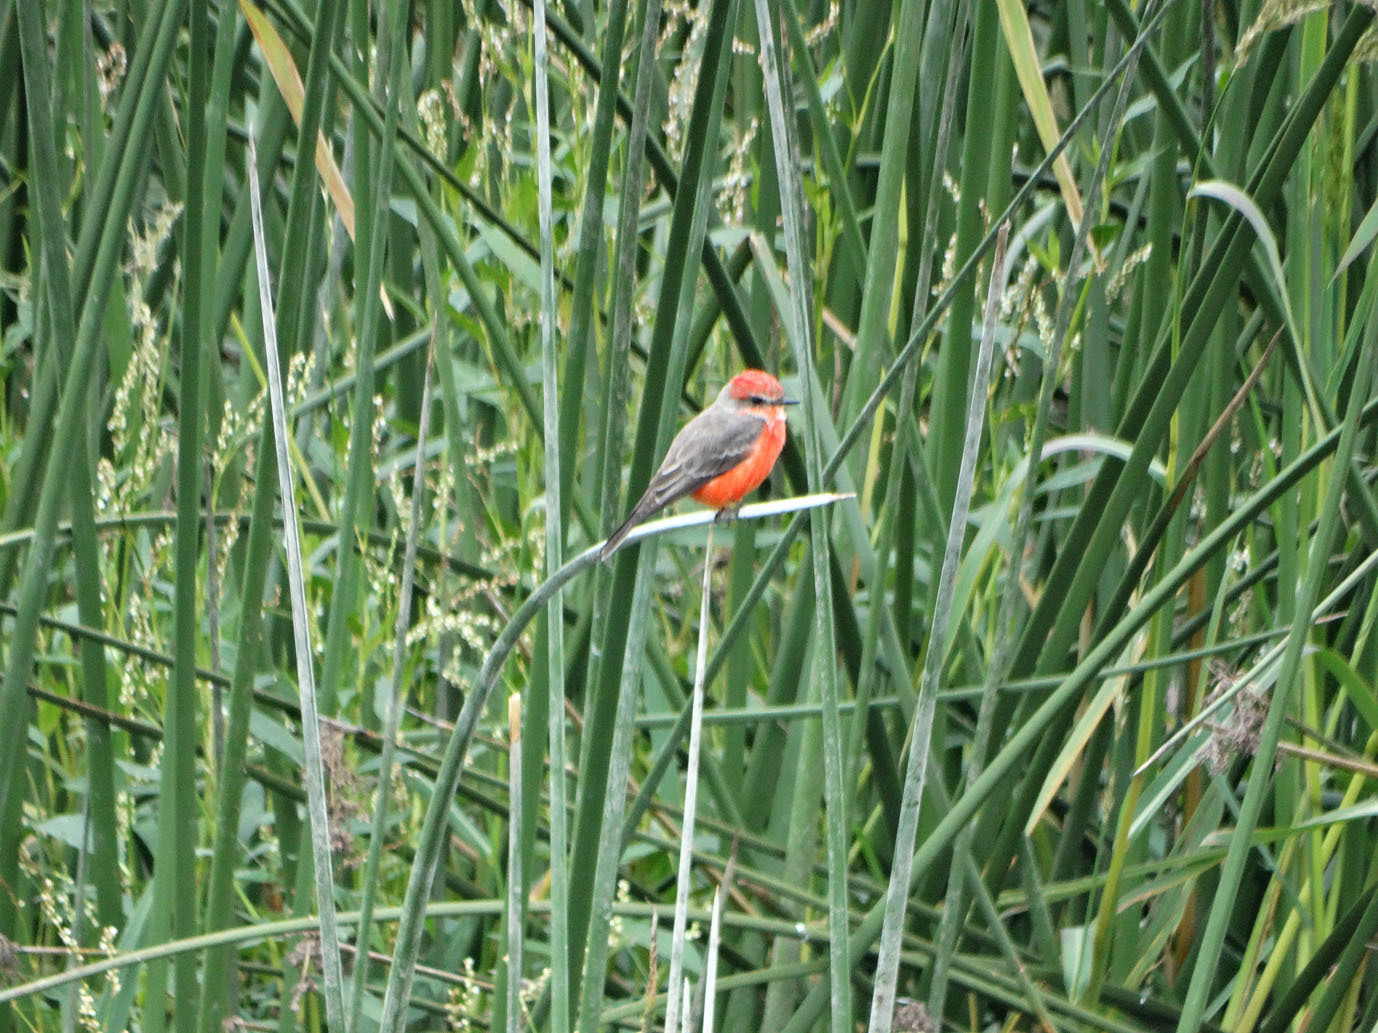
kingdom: Animalia
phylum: Chordata
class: Aves
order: Passeriformes
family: Tyrannidae
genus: Pyrocephalus
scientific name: Pyrocephalus rubinus
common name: Vermilion flycatcher
